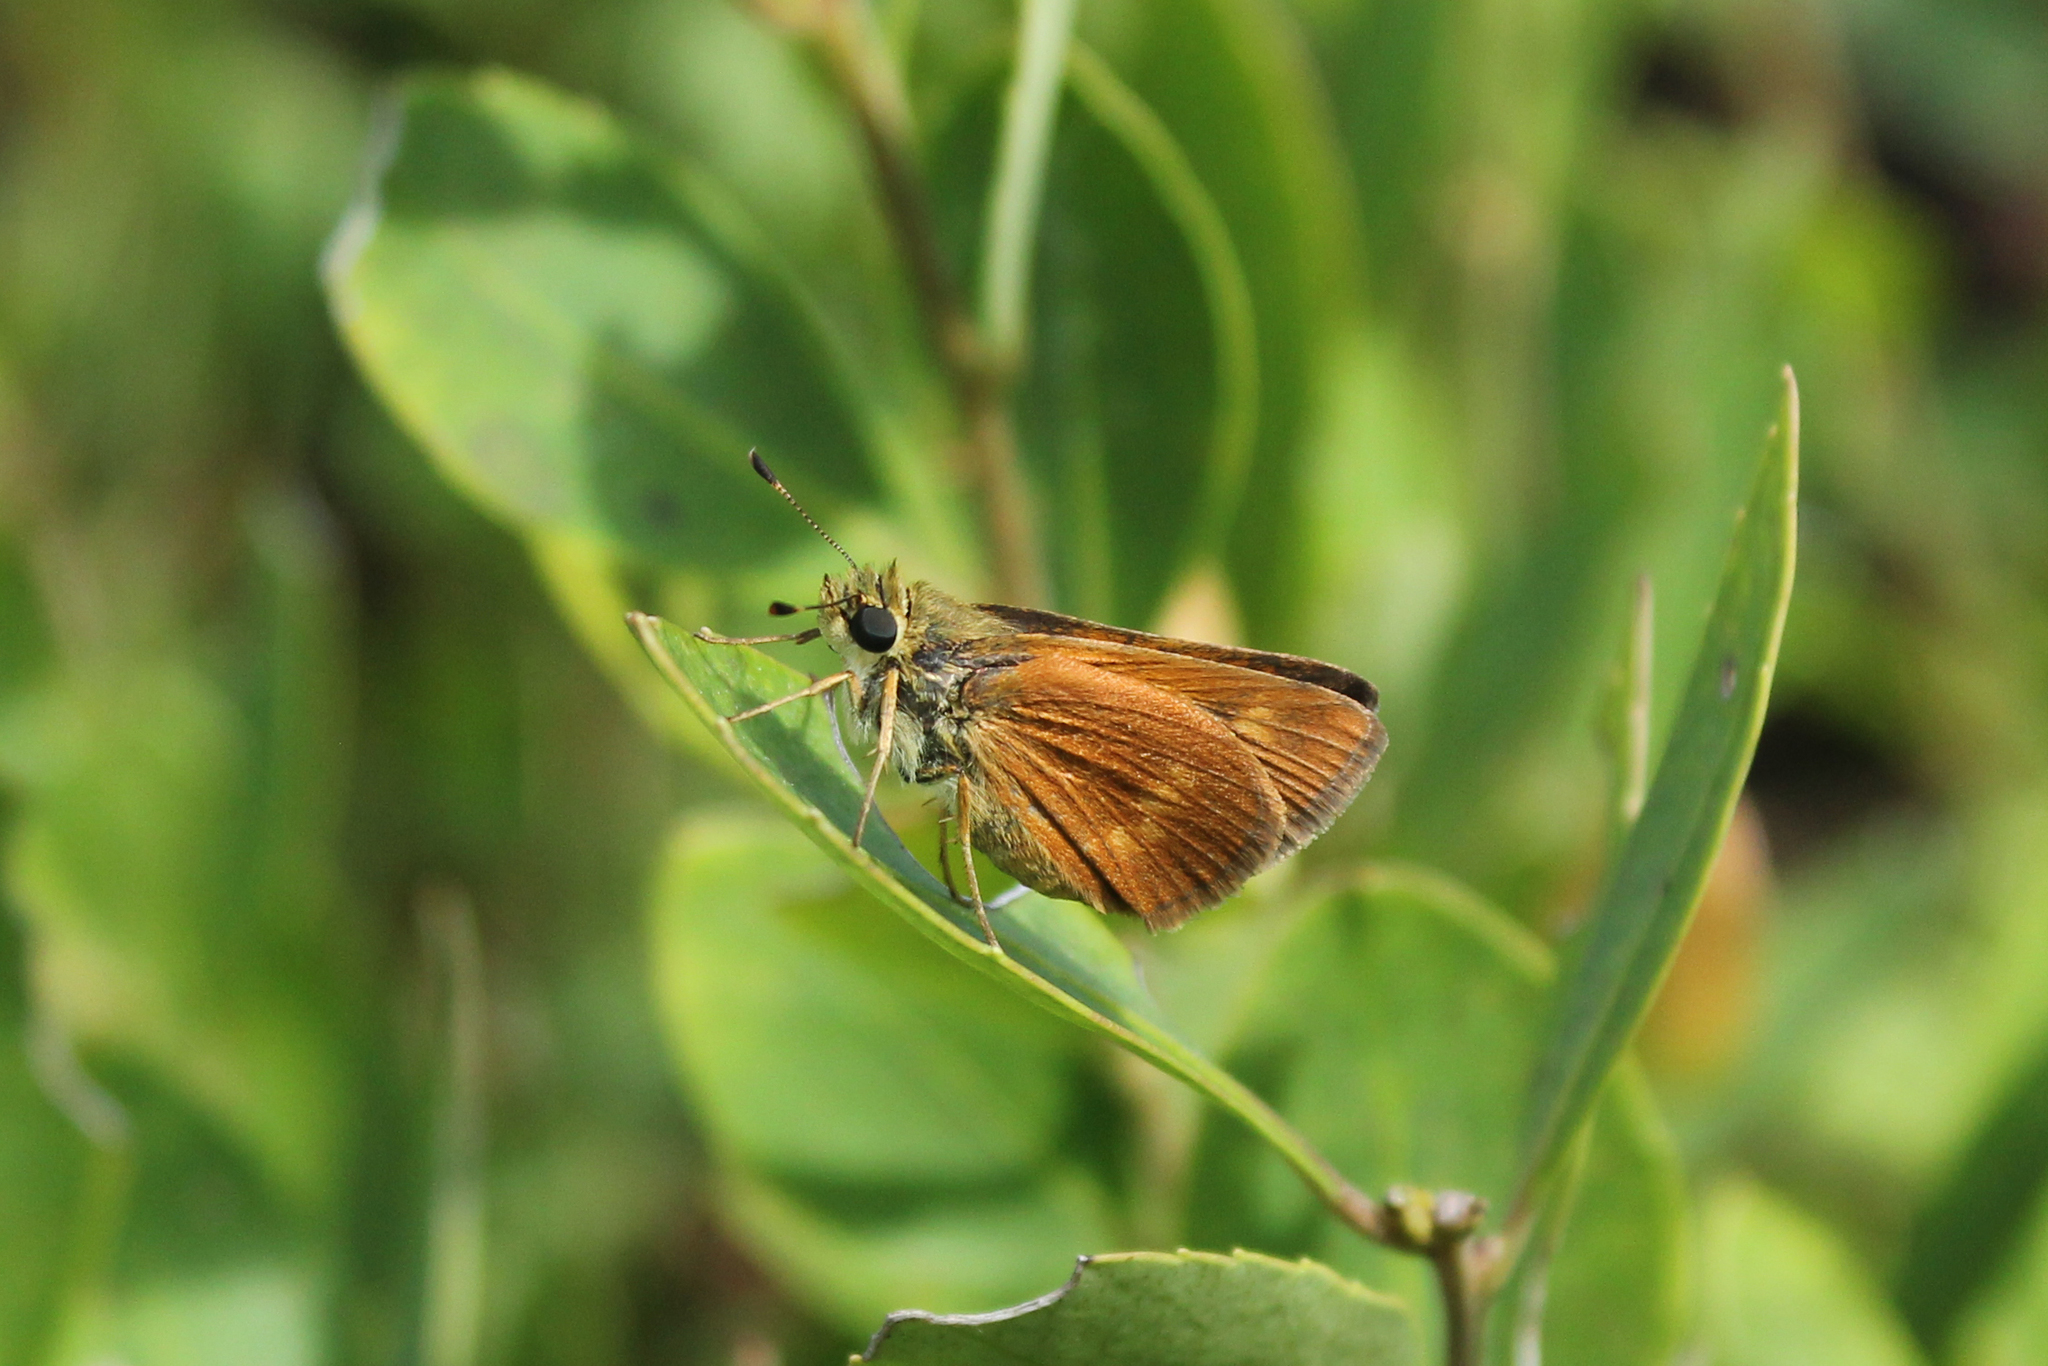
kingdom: Animalia
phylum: Arthropoda
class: Insecta
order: Lepidoptera
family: Hesperiidae
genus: Polites
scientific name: Polites otho
